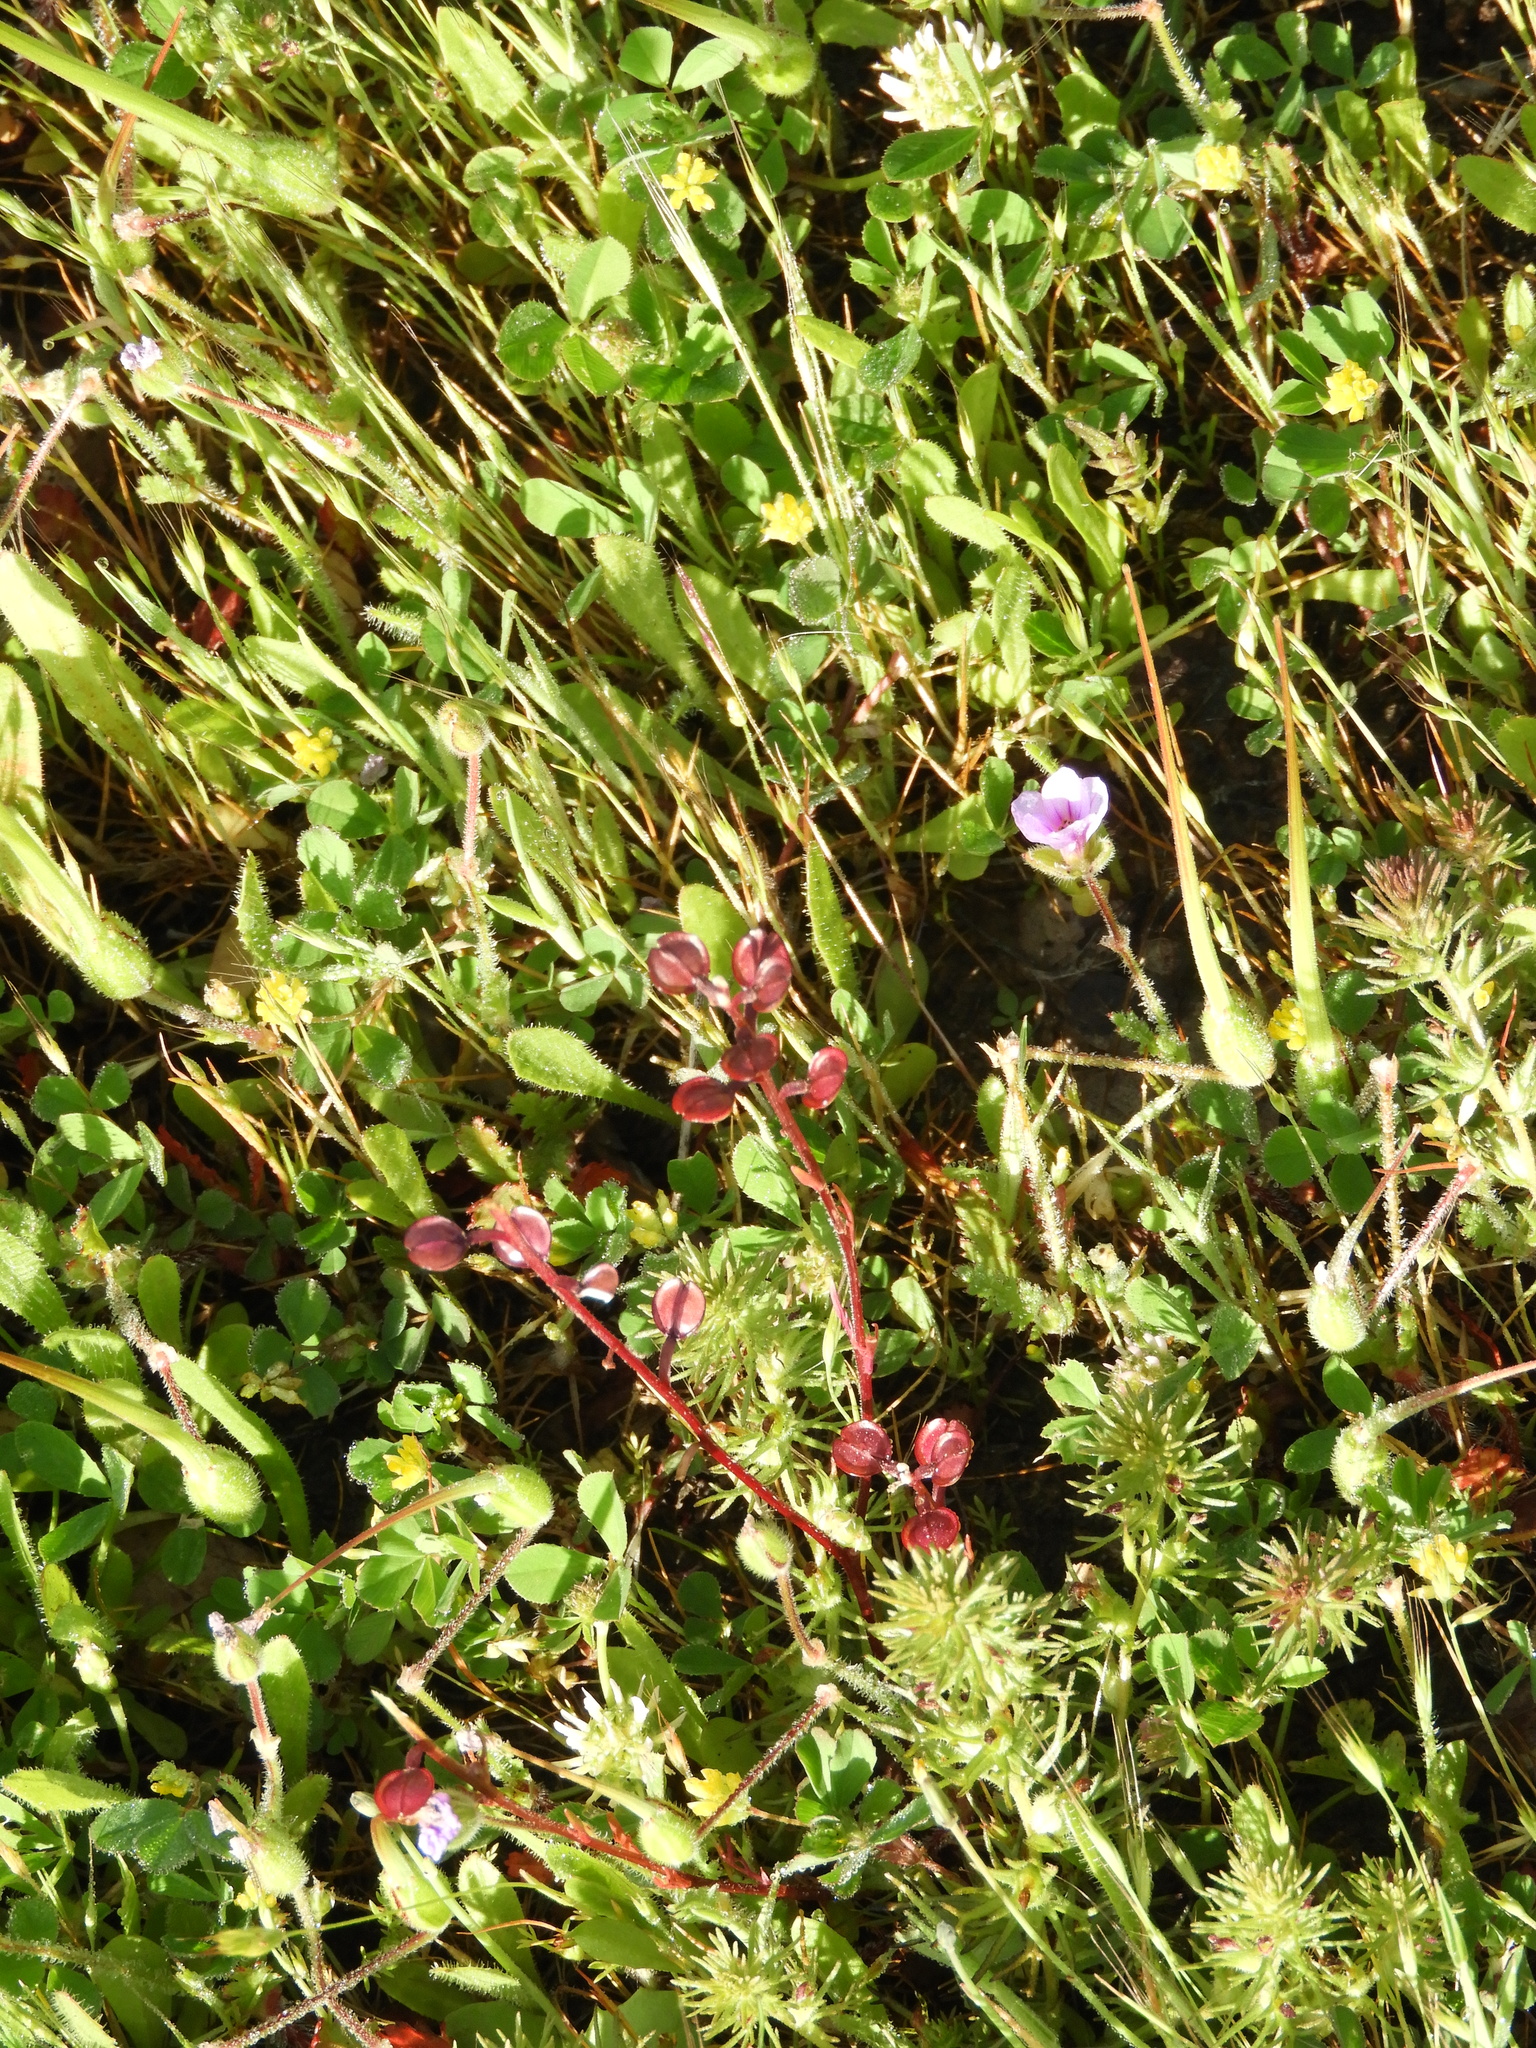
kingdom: Plantae
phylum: Tracheophyta
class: Magnoliopsida
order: Brassicales
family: Brassicaceae
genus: Lepidium
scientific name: Lepidium nitidum
